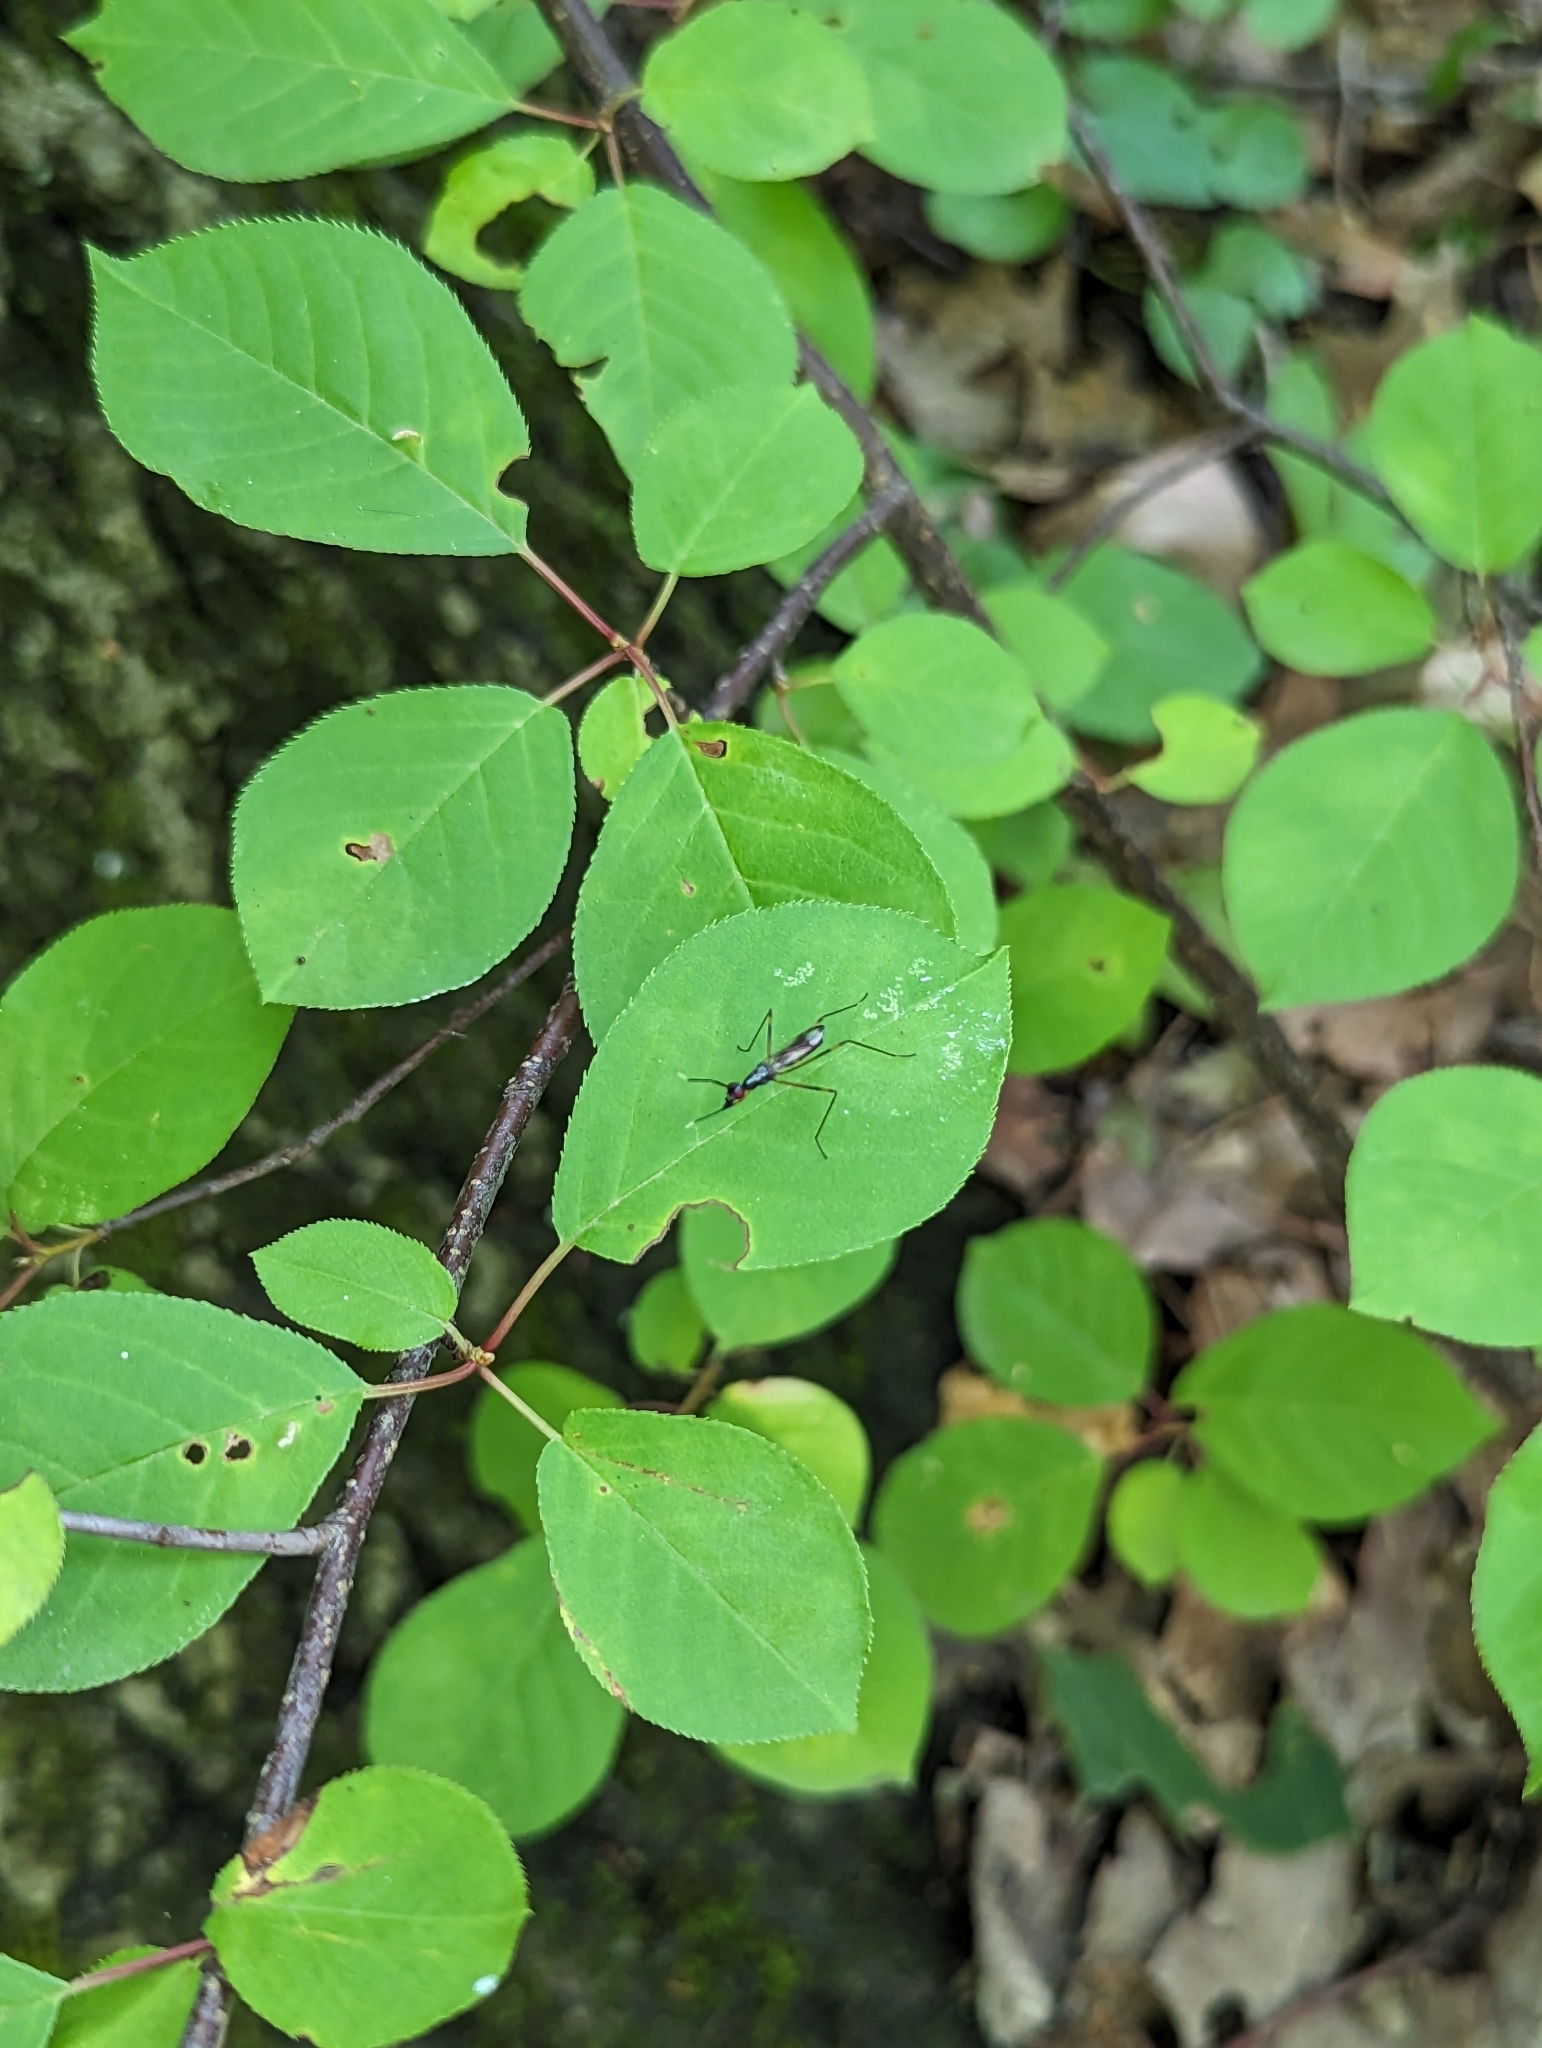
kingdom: Animalia
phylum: Arthropoda
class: Insecta
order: Diptera
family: Micropezidae
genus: Rainieria
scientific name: Rainieria antennaepes
